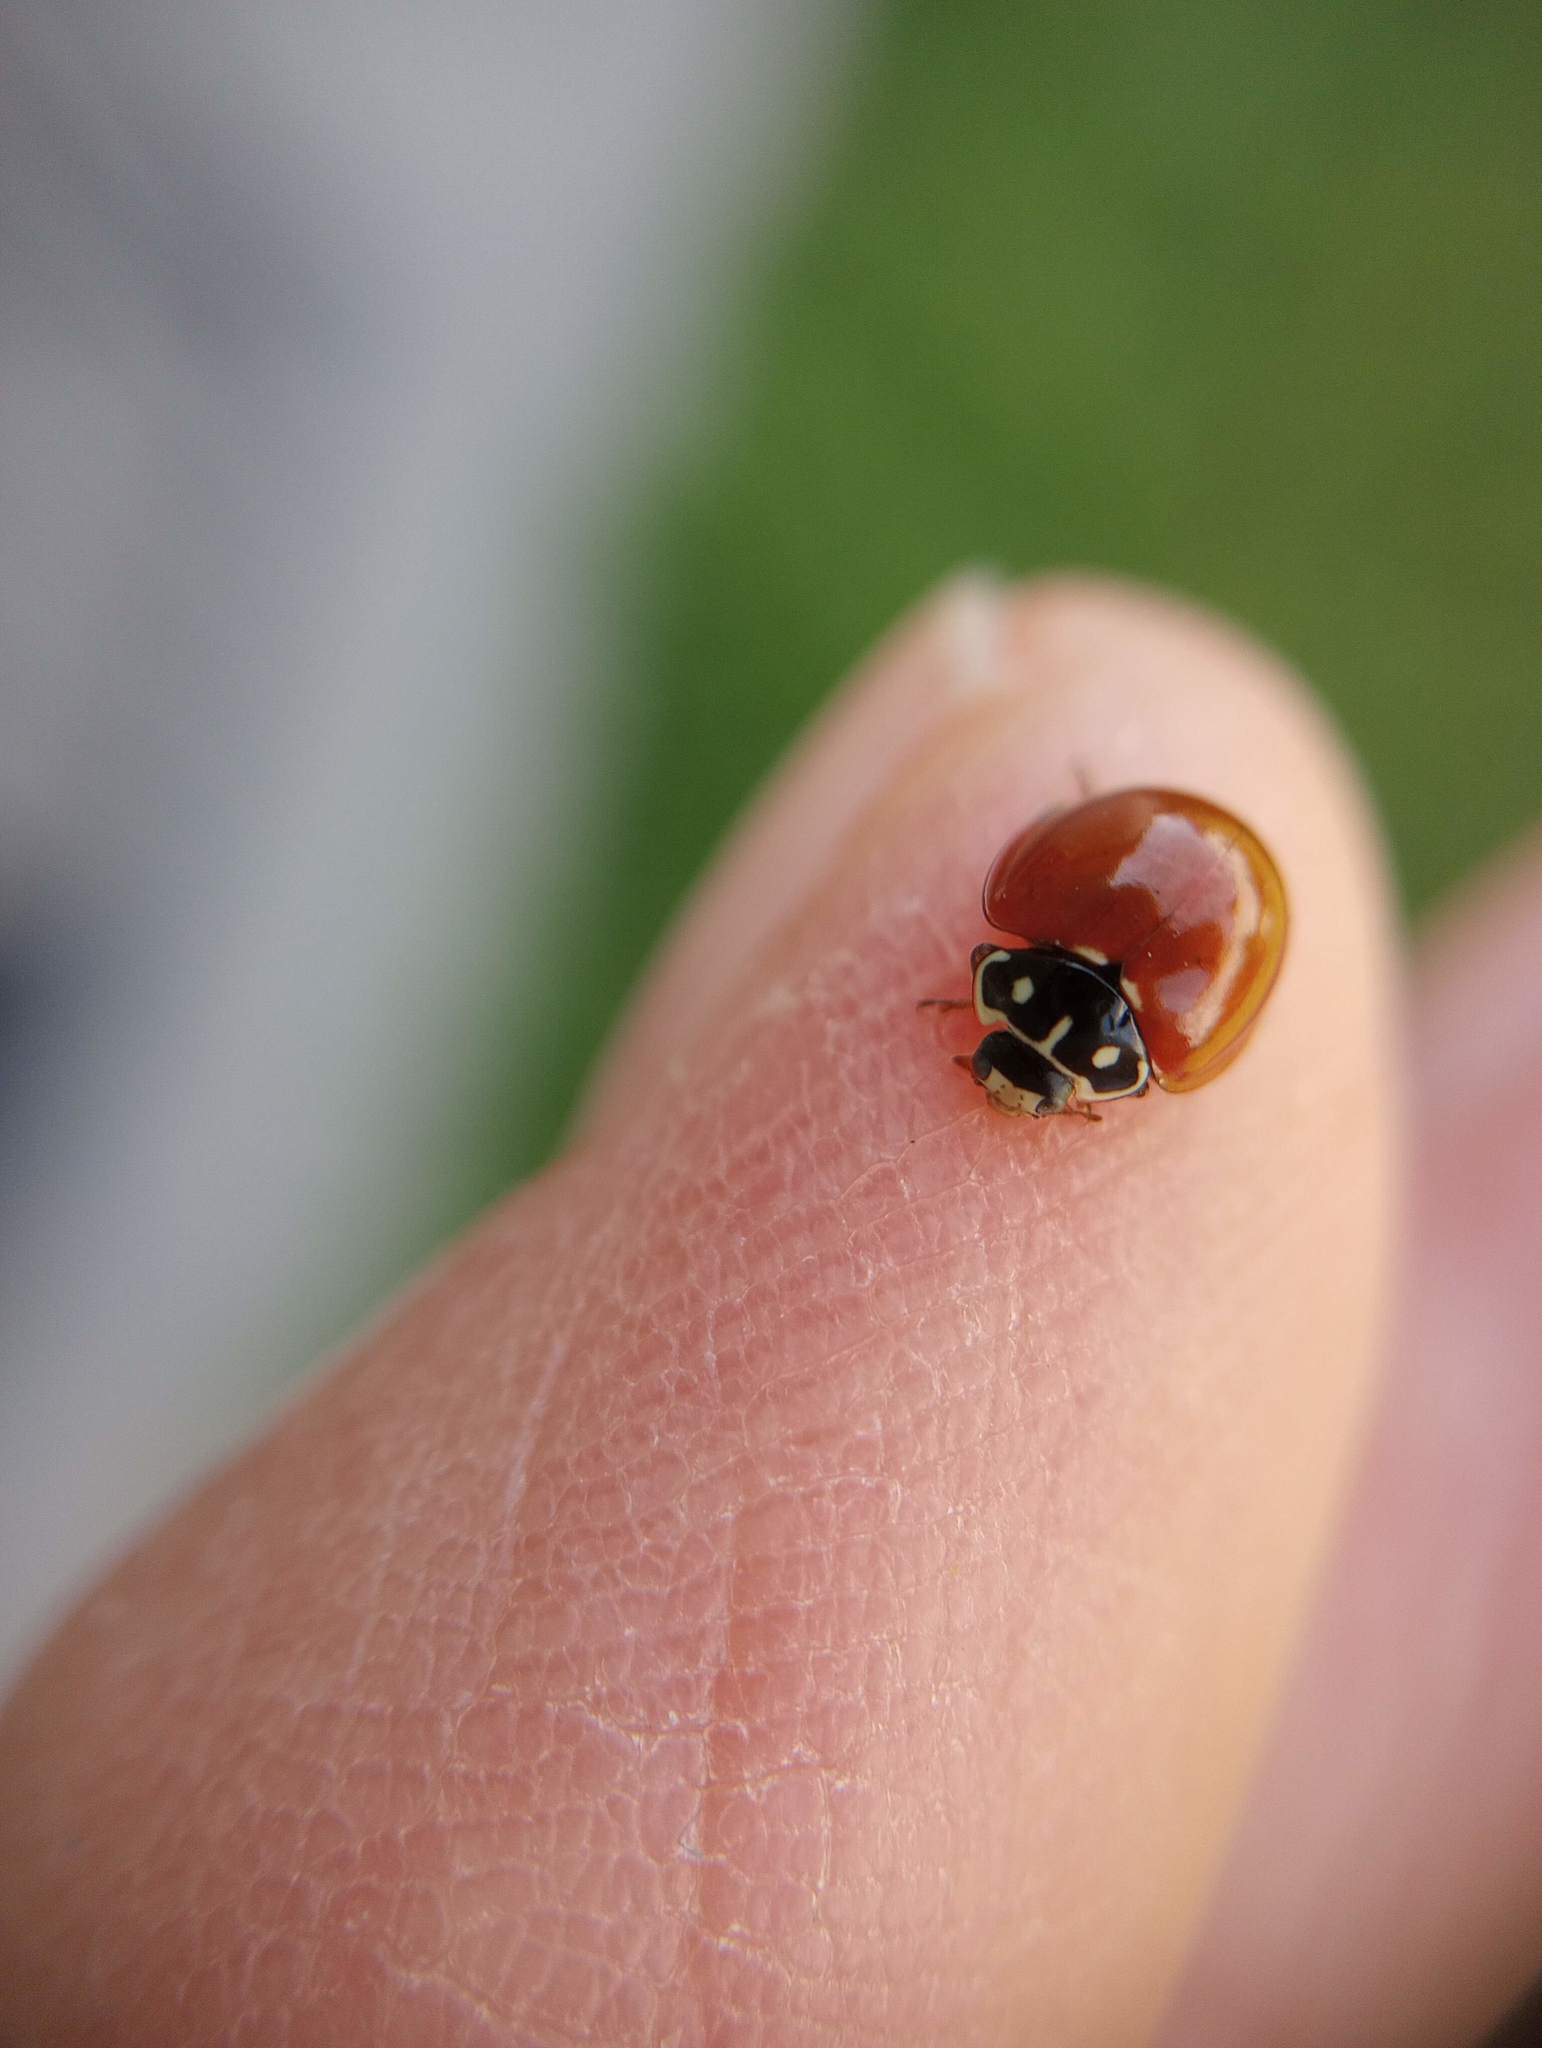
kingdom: Animalia
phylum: Arthropoda
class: Insecta
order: Coleoptera
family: Coccinellidae
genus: Cycloneda
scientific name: Cycloneda sanguinea
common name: Ladybird beetle
